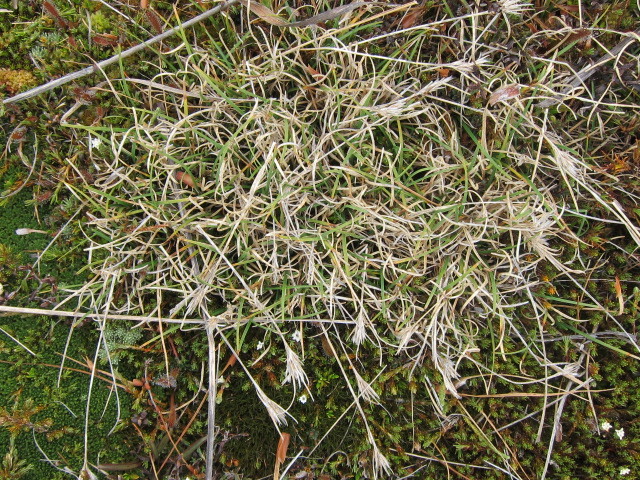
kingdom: Plantae
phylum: Tracheophyta
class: Liliopsida
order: Poales
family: Cyperaceae
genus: Carpha
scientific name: Carpha alpina
